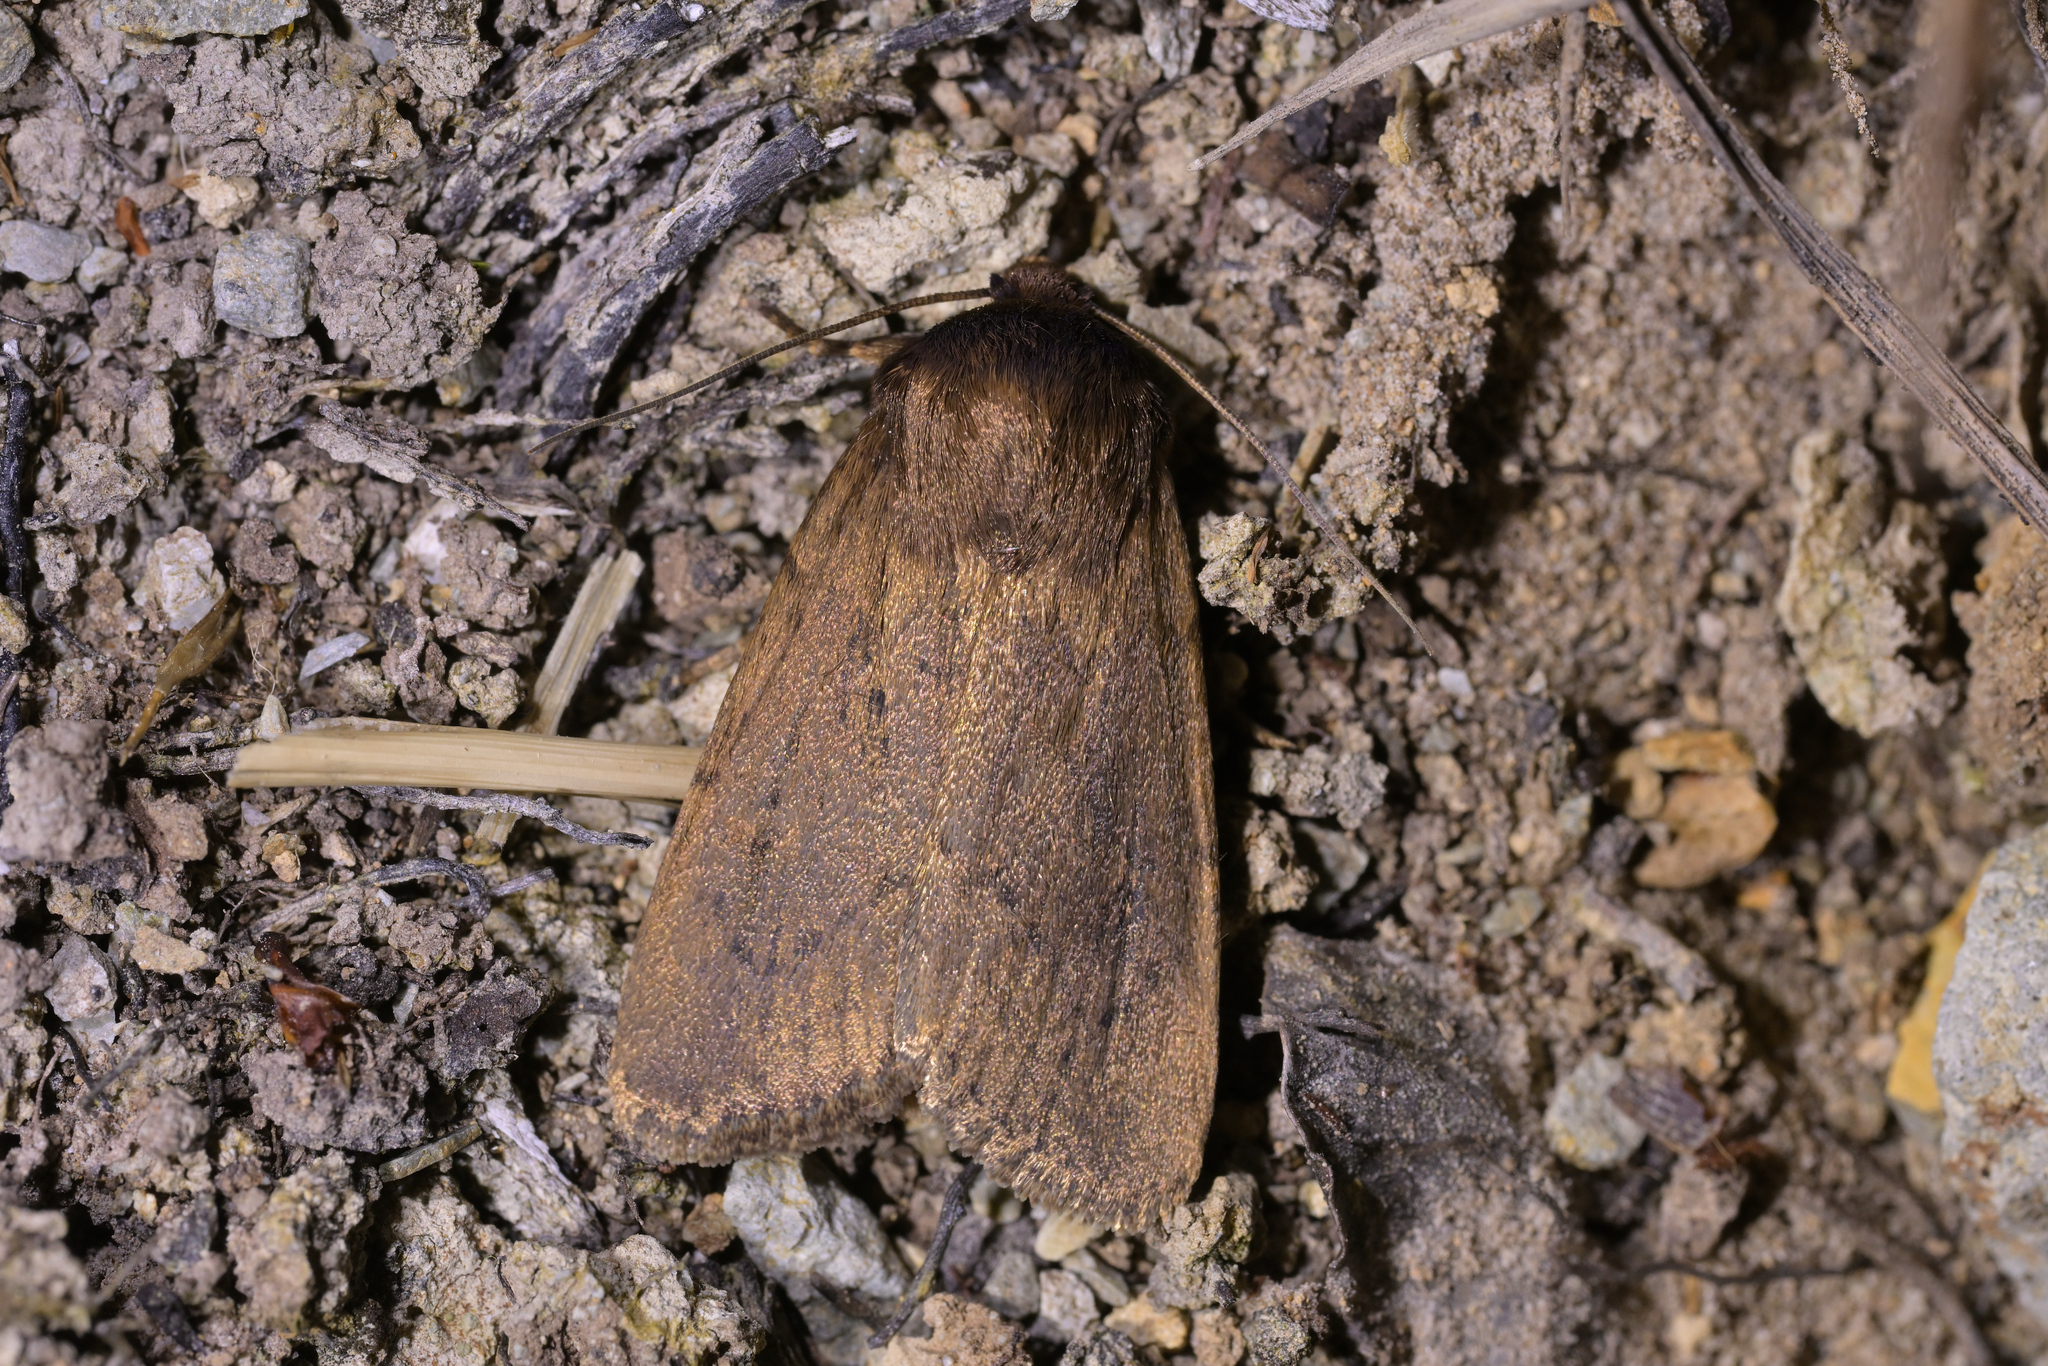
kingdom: Animalia
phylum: Arthropoda
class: Insecta
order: Lepidoptera
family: Noctuidae
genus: Bityla
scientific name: Bityla defigurata
